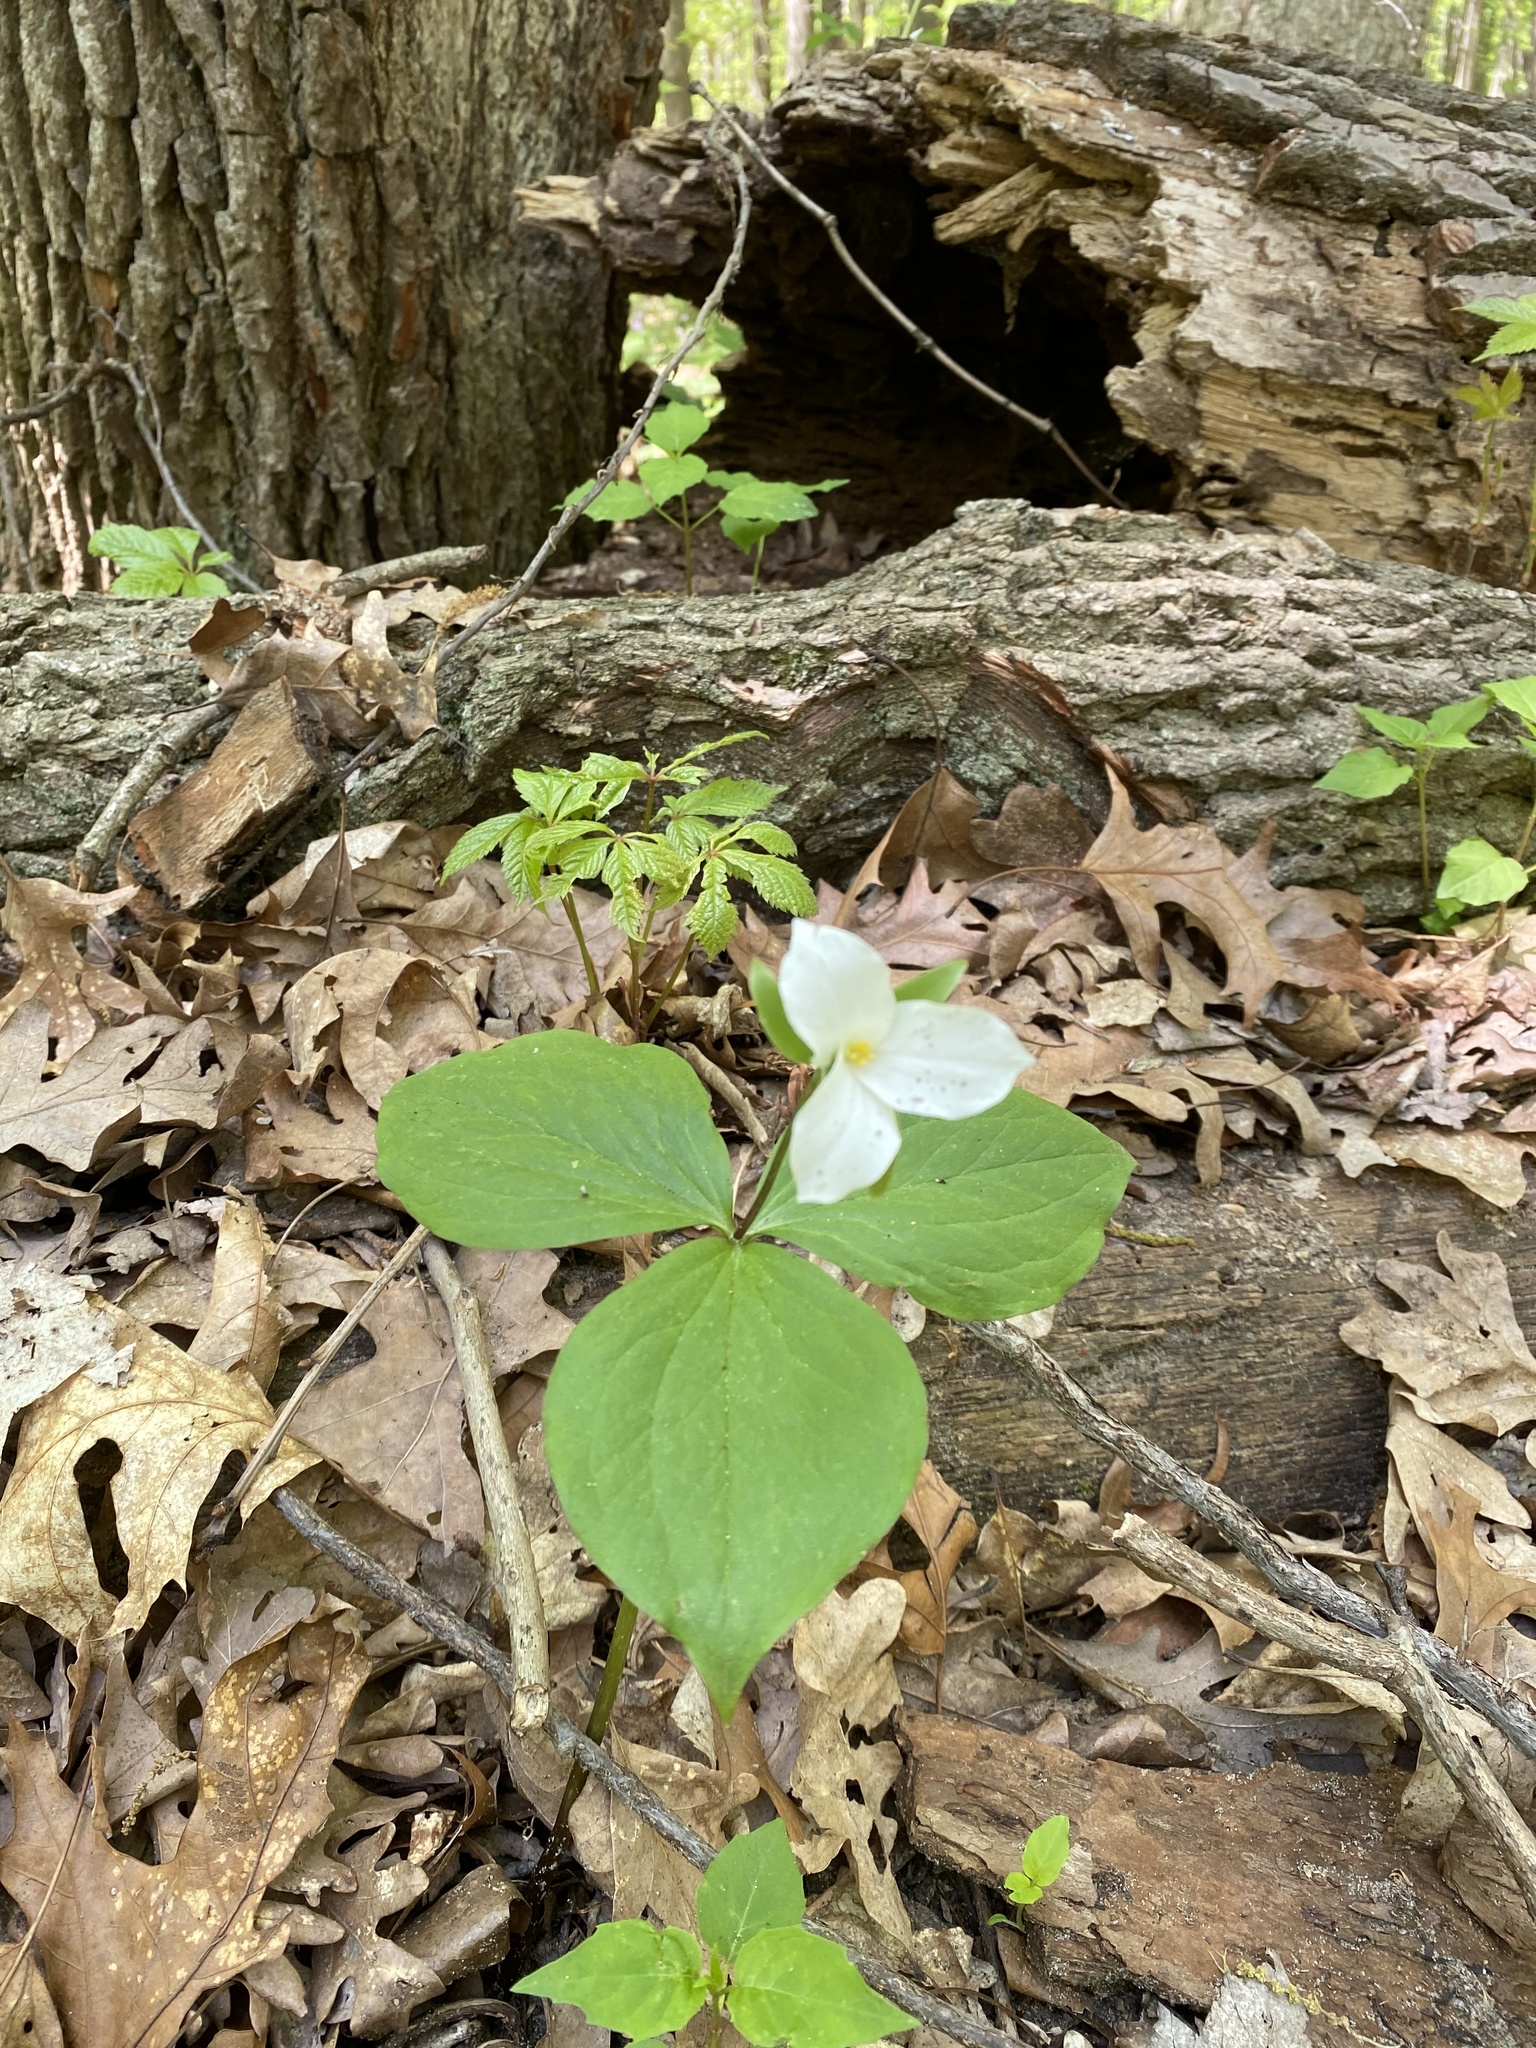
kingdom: Plantae
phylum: Tracheophyta
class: Liliopsida
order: Liliales
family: Melanthiaceae
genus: Trillium
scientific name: Trillium grandiflorum
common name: Great white trillium
